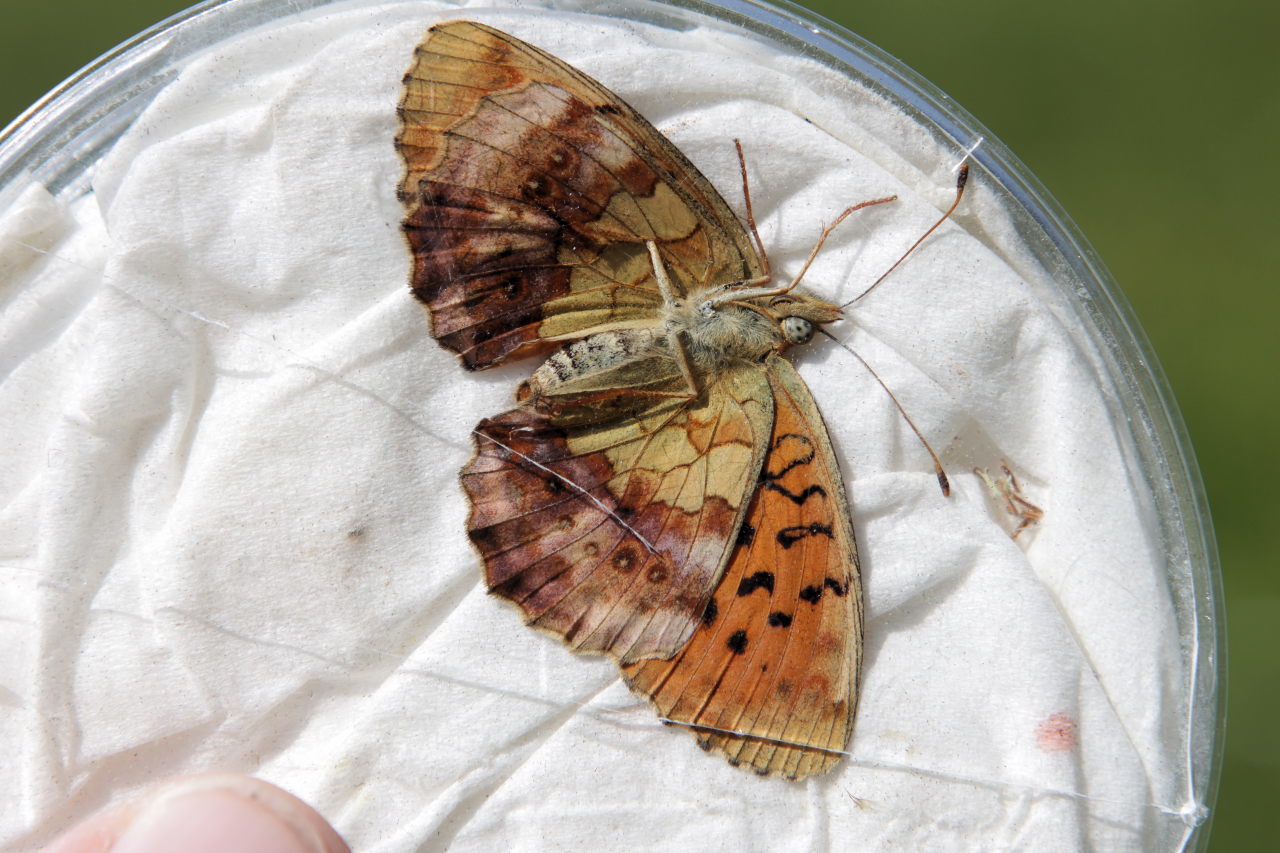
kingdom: Animalia
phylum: Arthropoda
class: Insecta
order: Lepidoptera
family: Nymphalidae
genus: Brenthis
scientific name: Brenthis daphne
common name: Marbled fritillary
